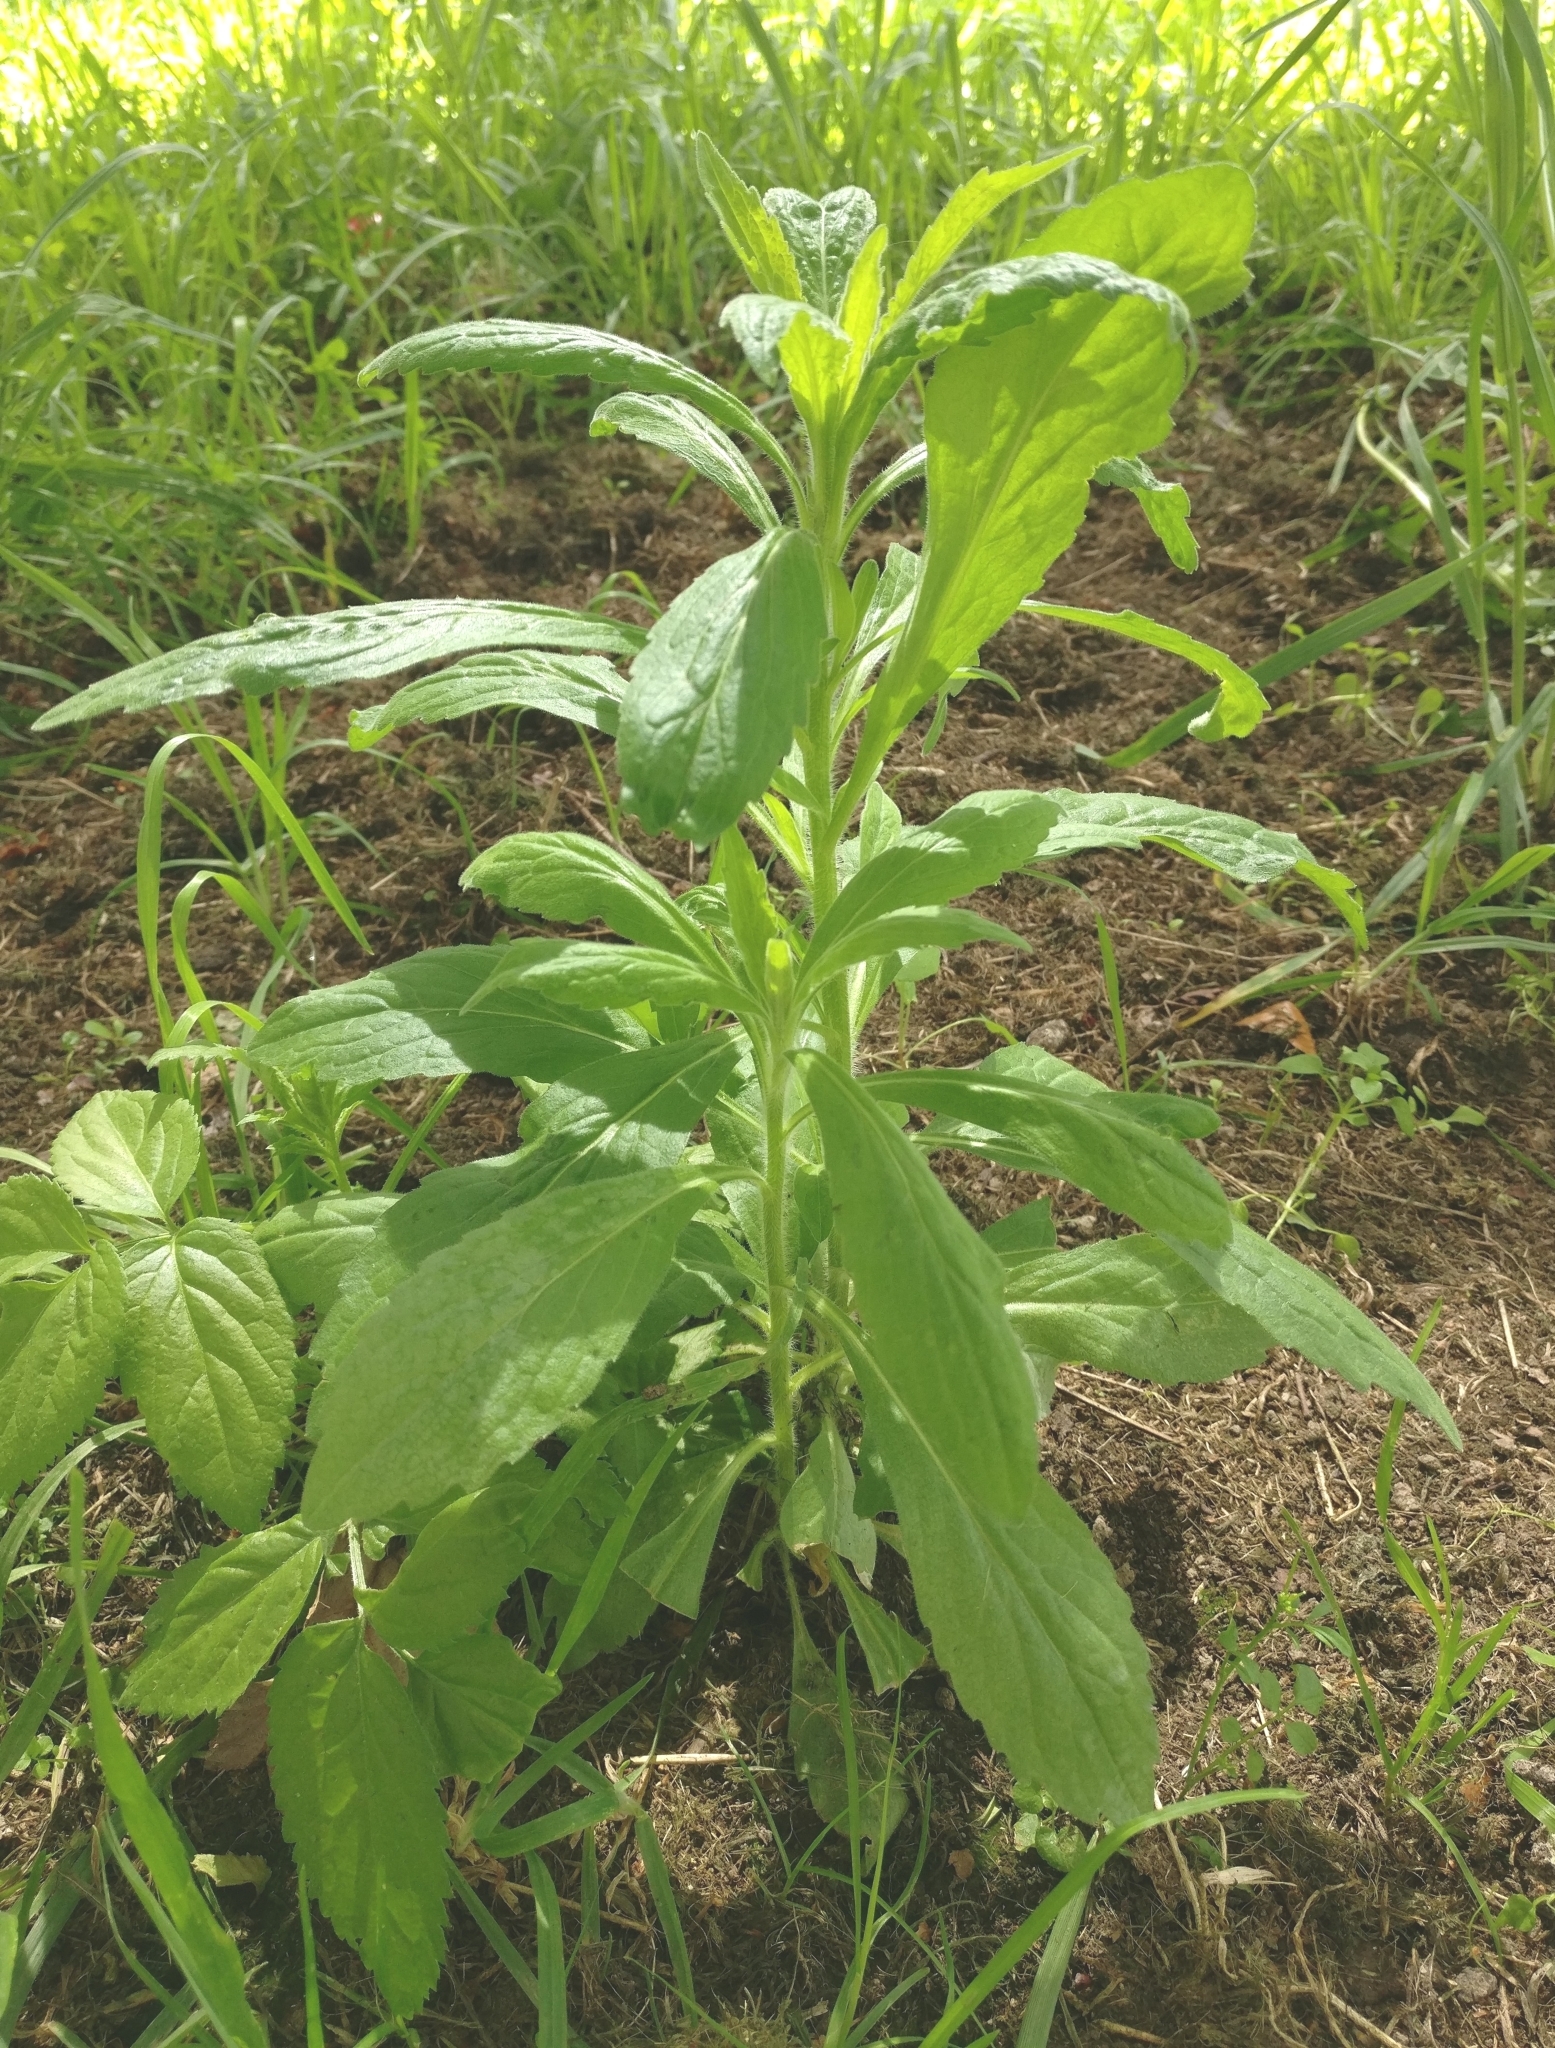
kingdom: Plantae
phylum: Tracheophyta
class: Magnoliopsida
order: Asterales
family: Asteraceae
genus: Erigeron
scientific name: Erigeron sumatrensis
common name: Daisy
